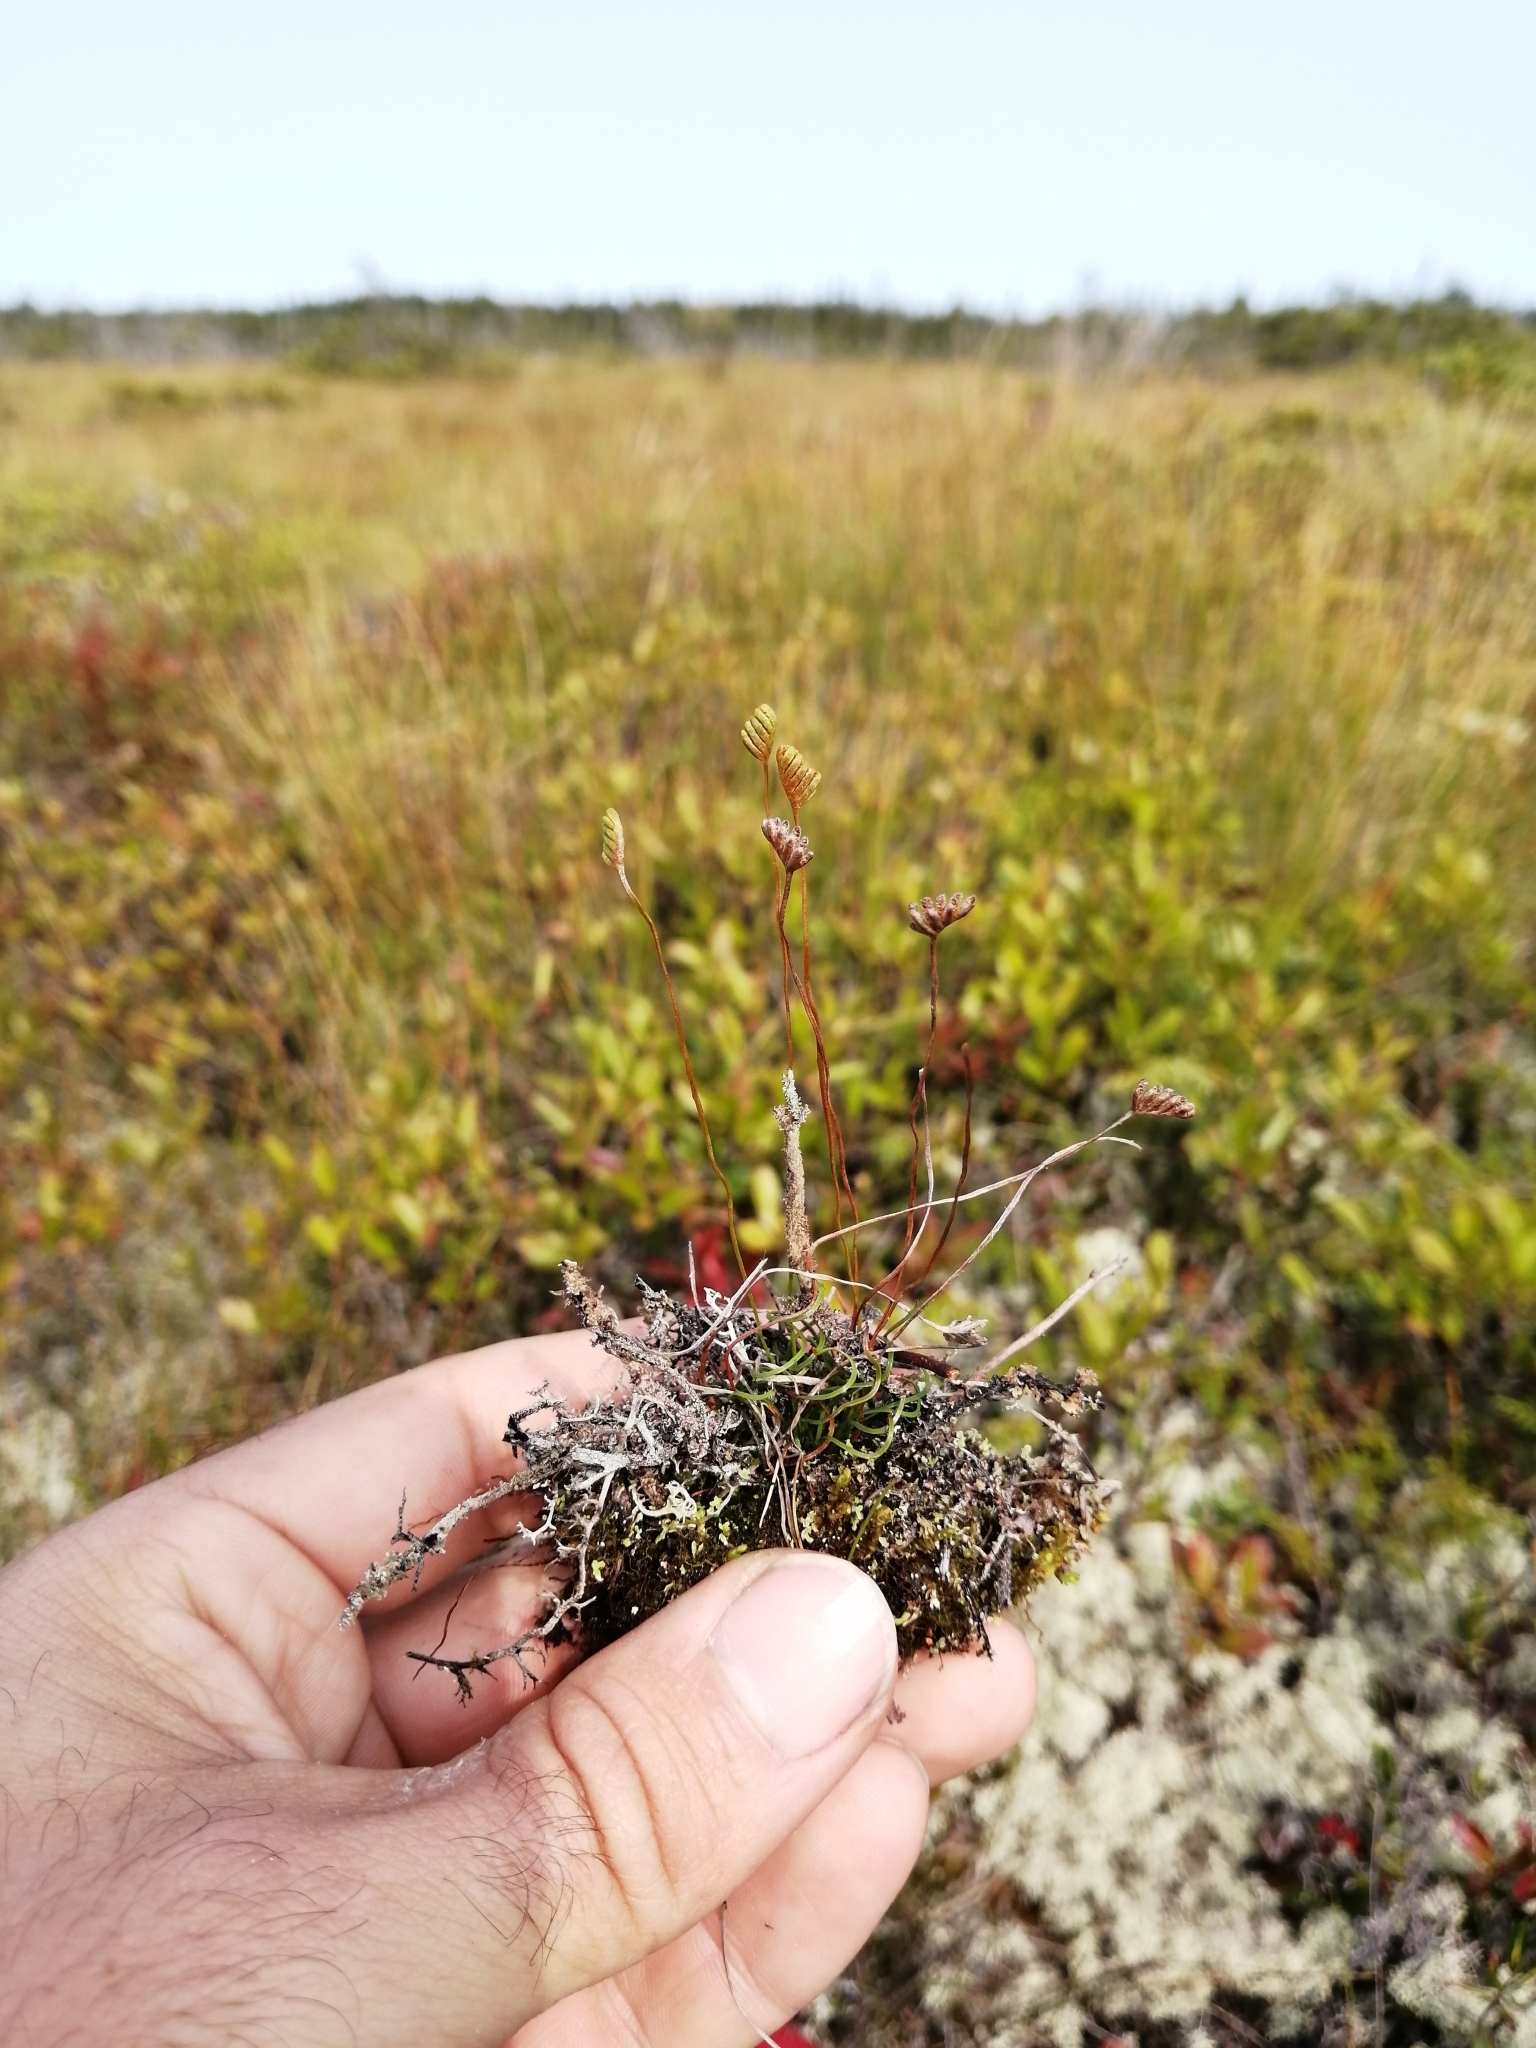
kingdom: Plantae
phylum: Tracheophyta
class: Polypodiopsida
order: Schizaeales
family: Schizaeaceae
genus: Schizaea
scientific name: Schizaea pusilla
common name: Curly-grass fern
